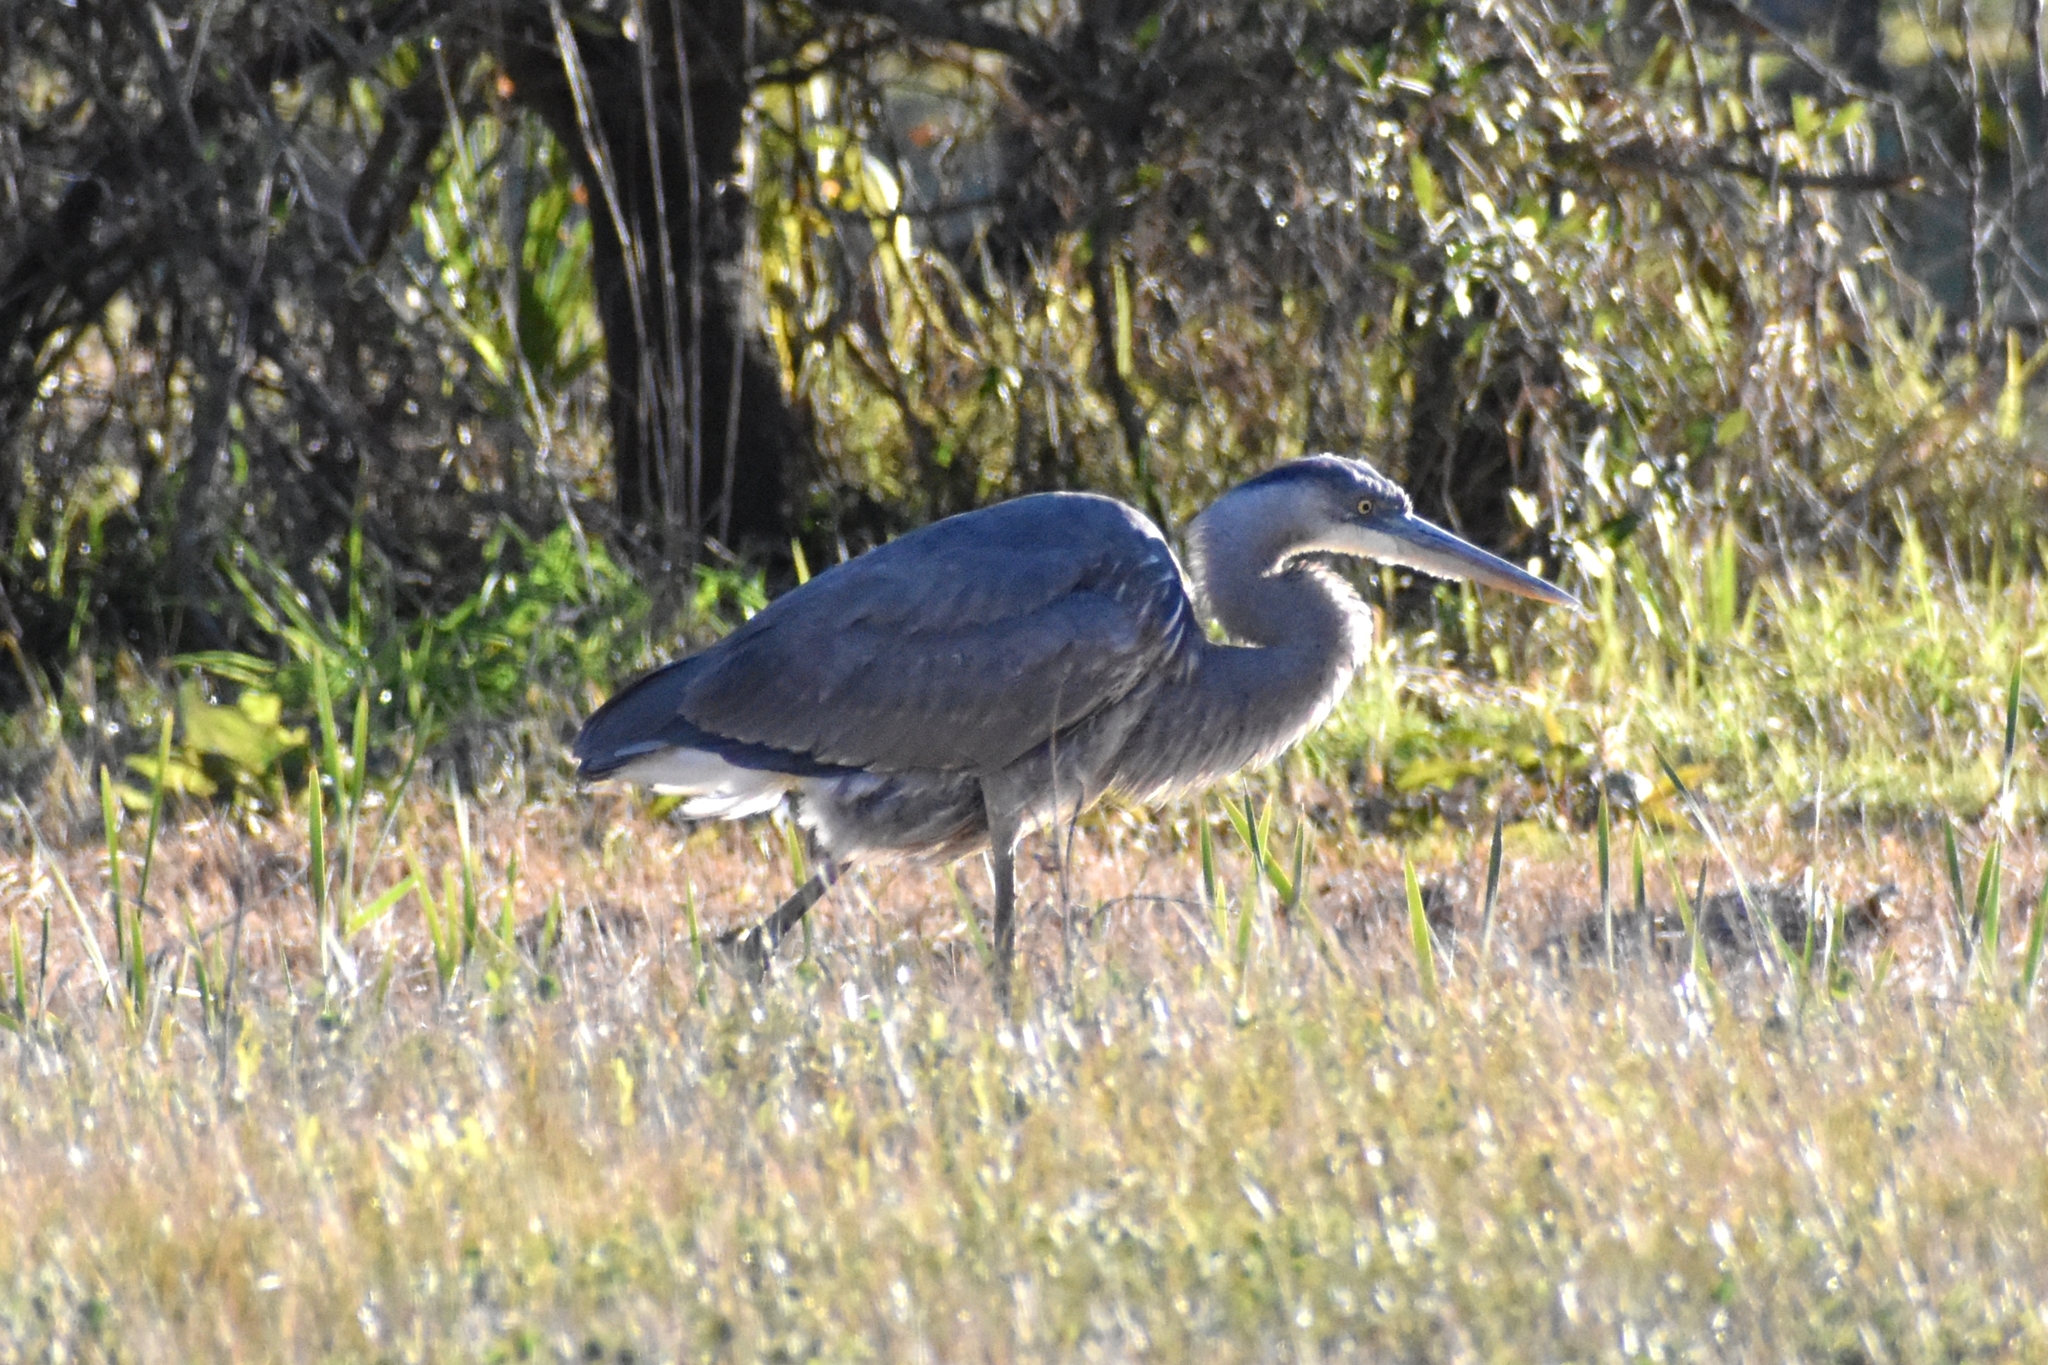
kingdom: Animalia
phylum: Chordata
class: Aves
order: Pelecaniformes
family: Ardeidae
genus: Ardea
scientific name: Ardea herodias
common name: Great blue heron
